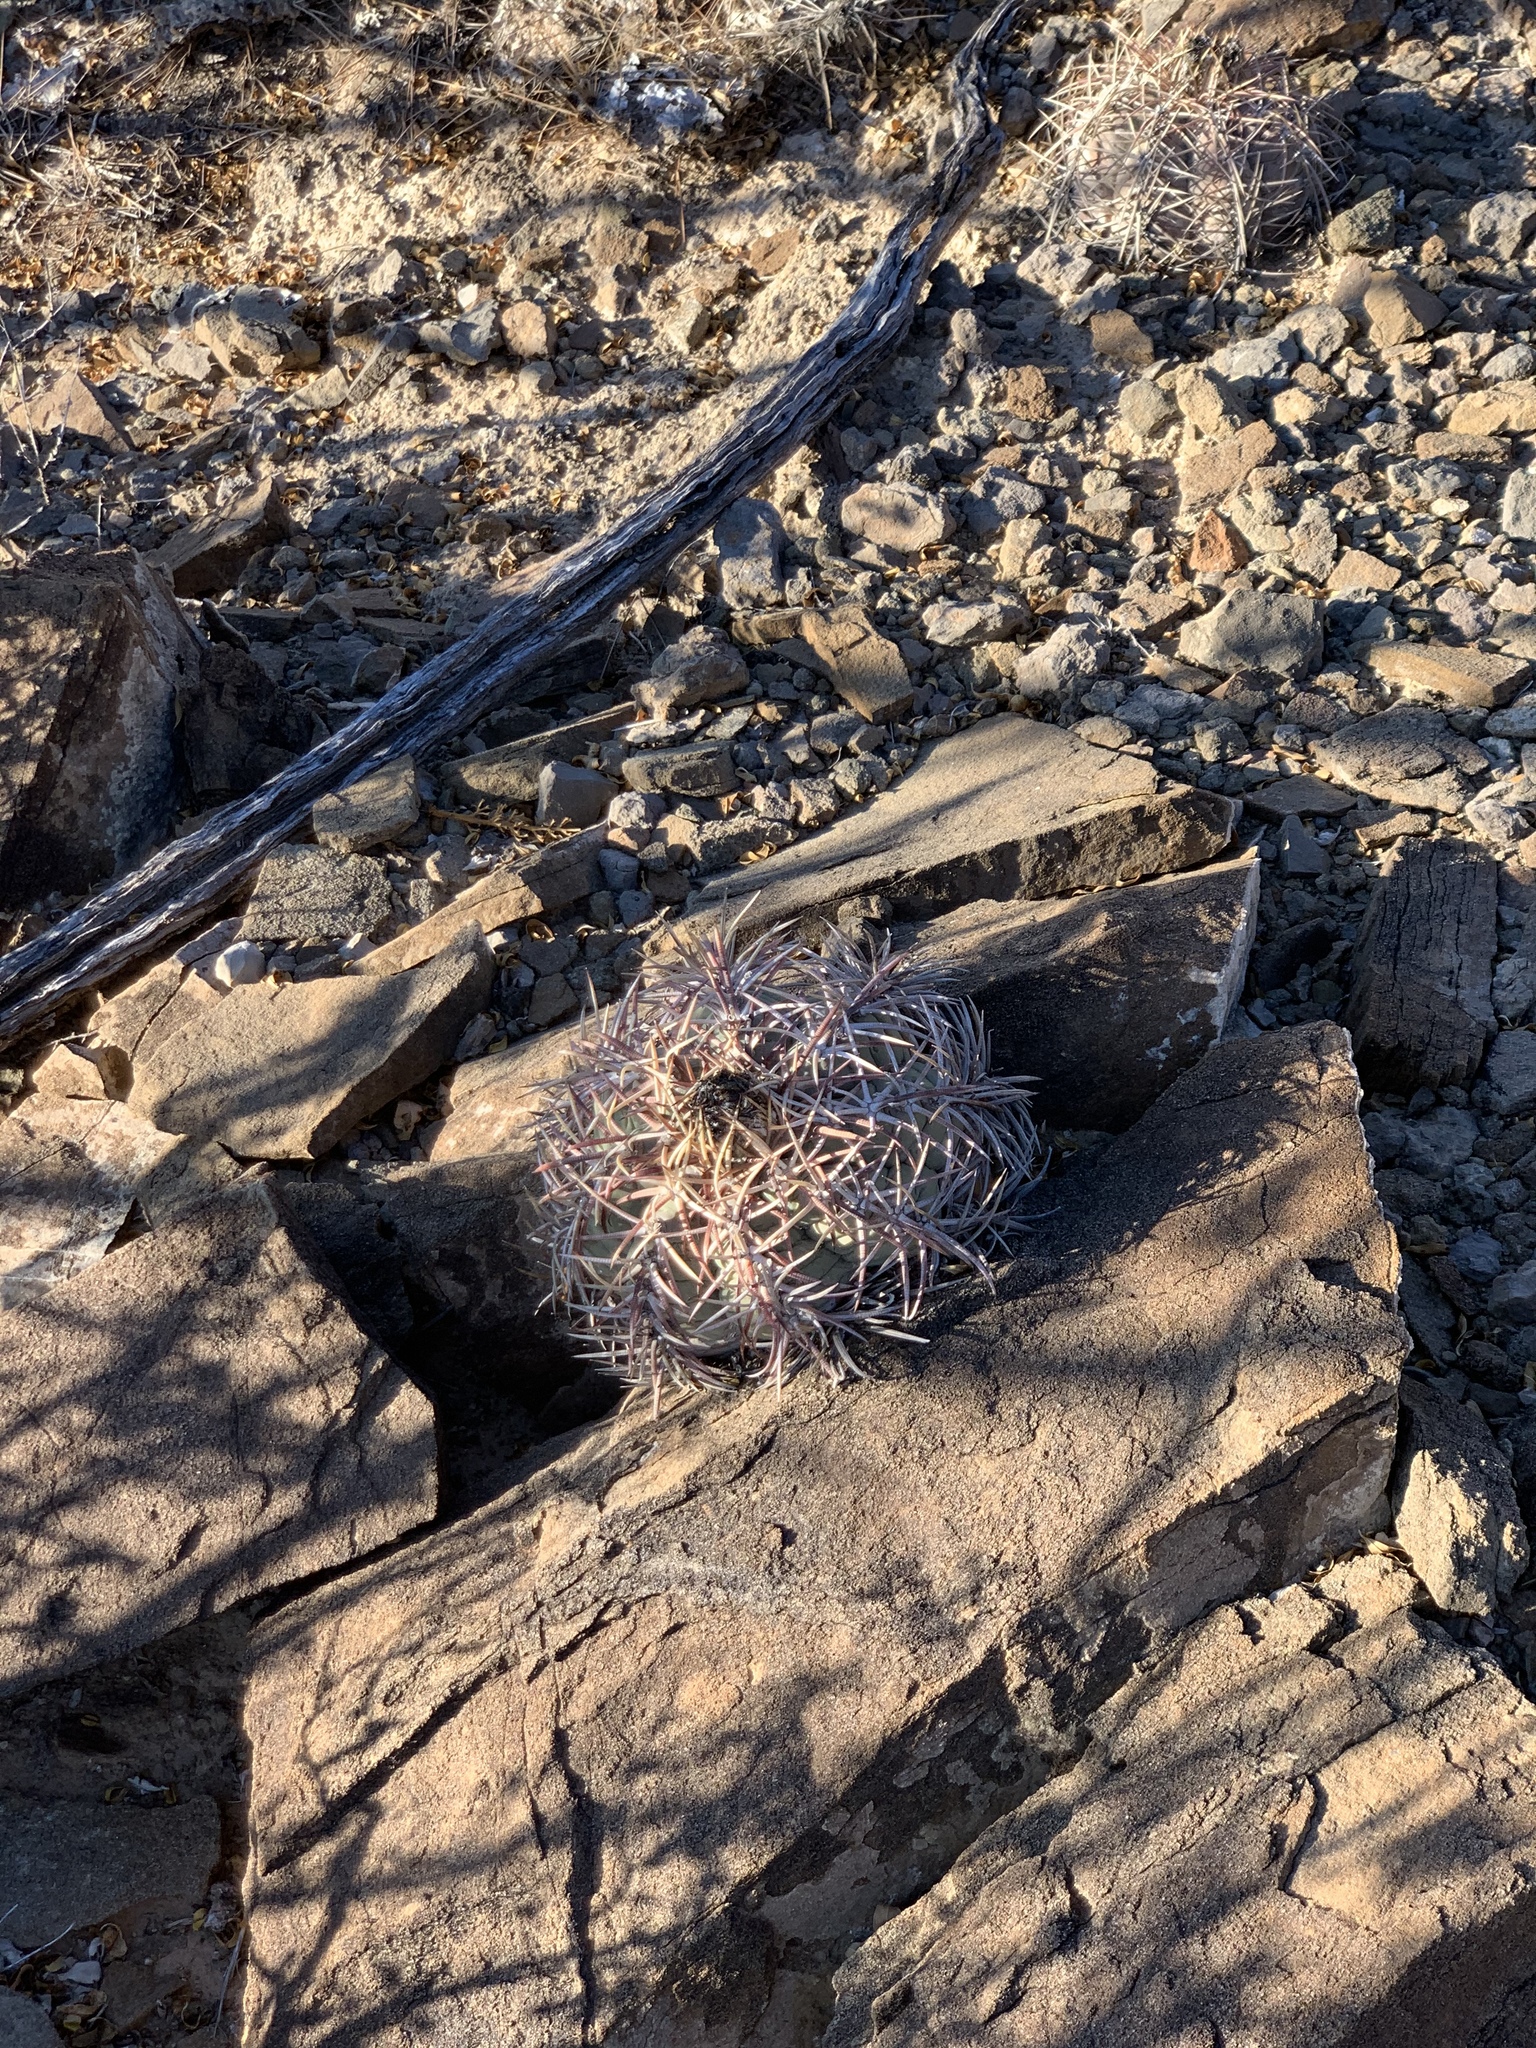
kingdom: Plantae
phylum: Tracheophyta
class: Magnoliopsida
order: Caryophyllales
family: Cactaceae
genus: Echinocactus
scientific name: Echinocactus horizonthalonius
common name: Devilshead
